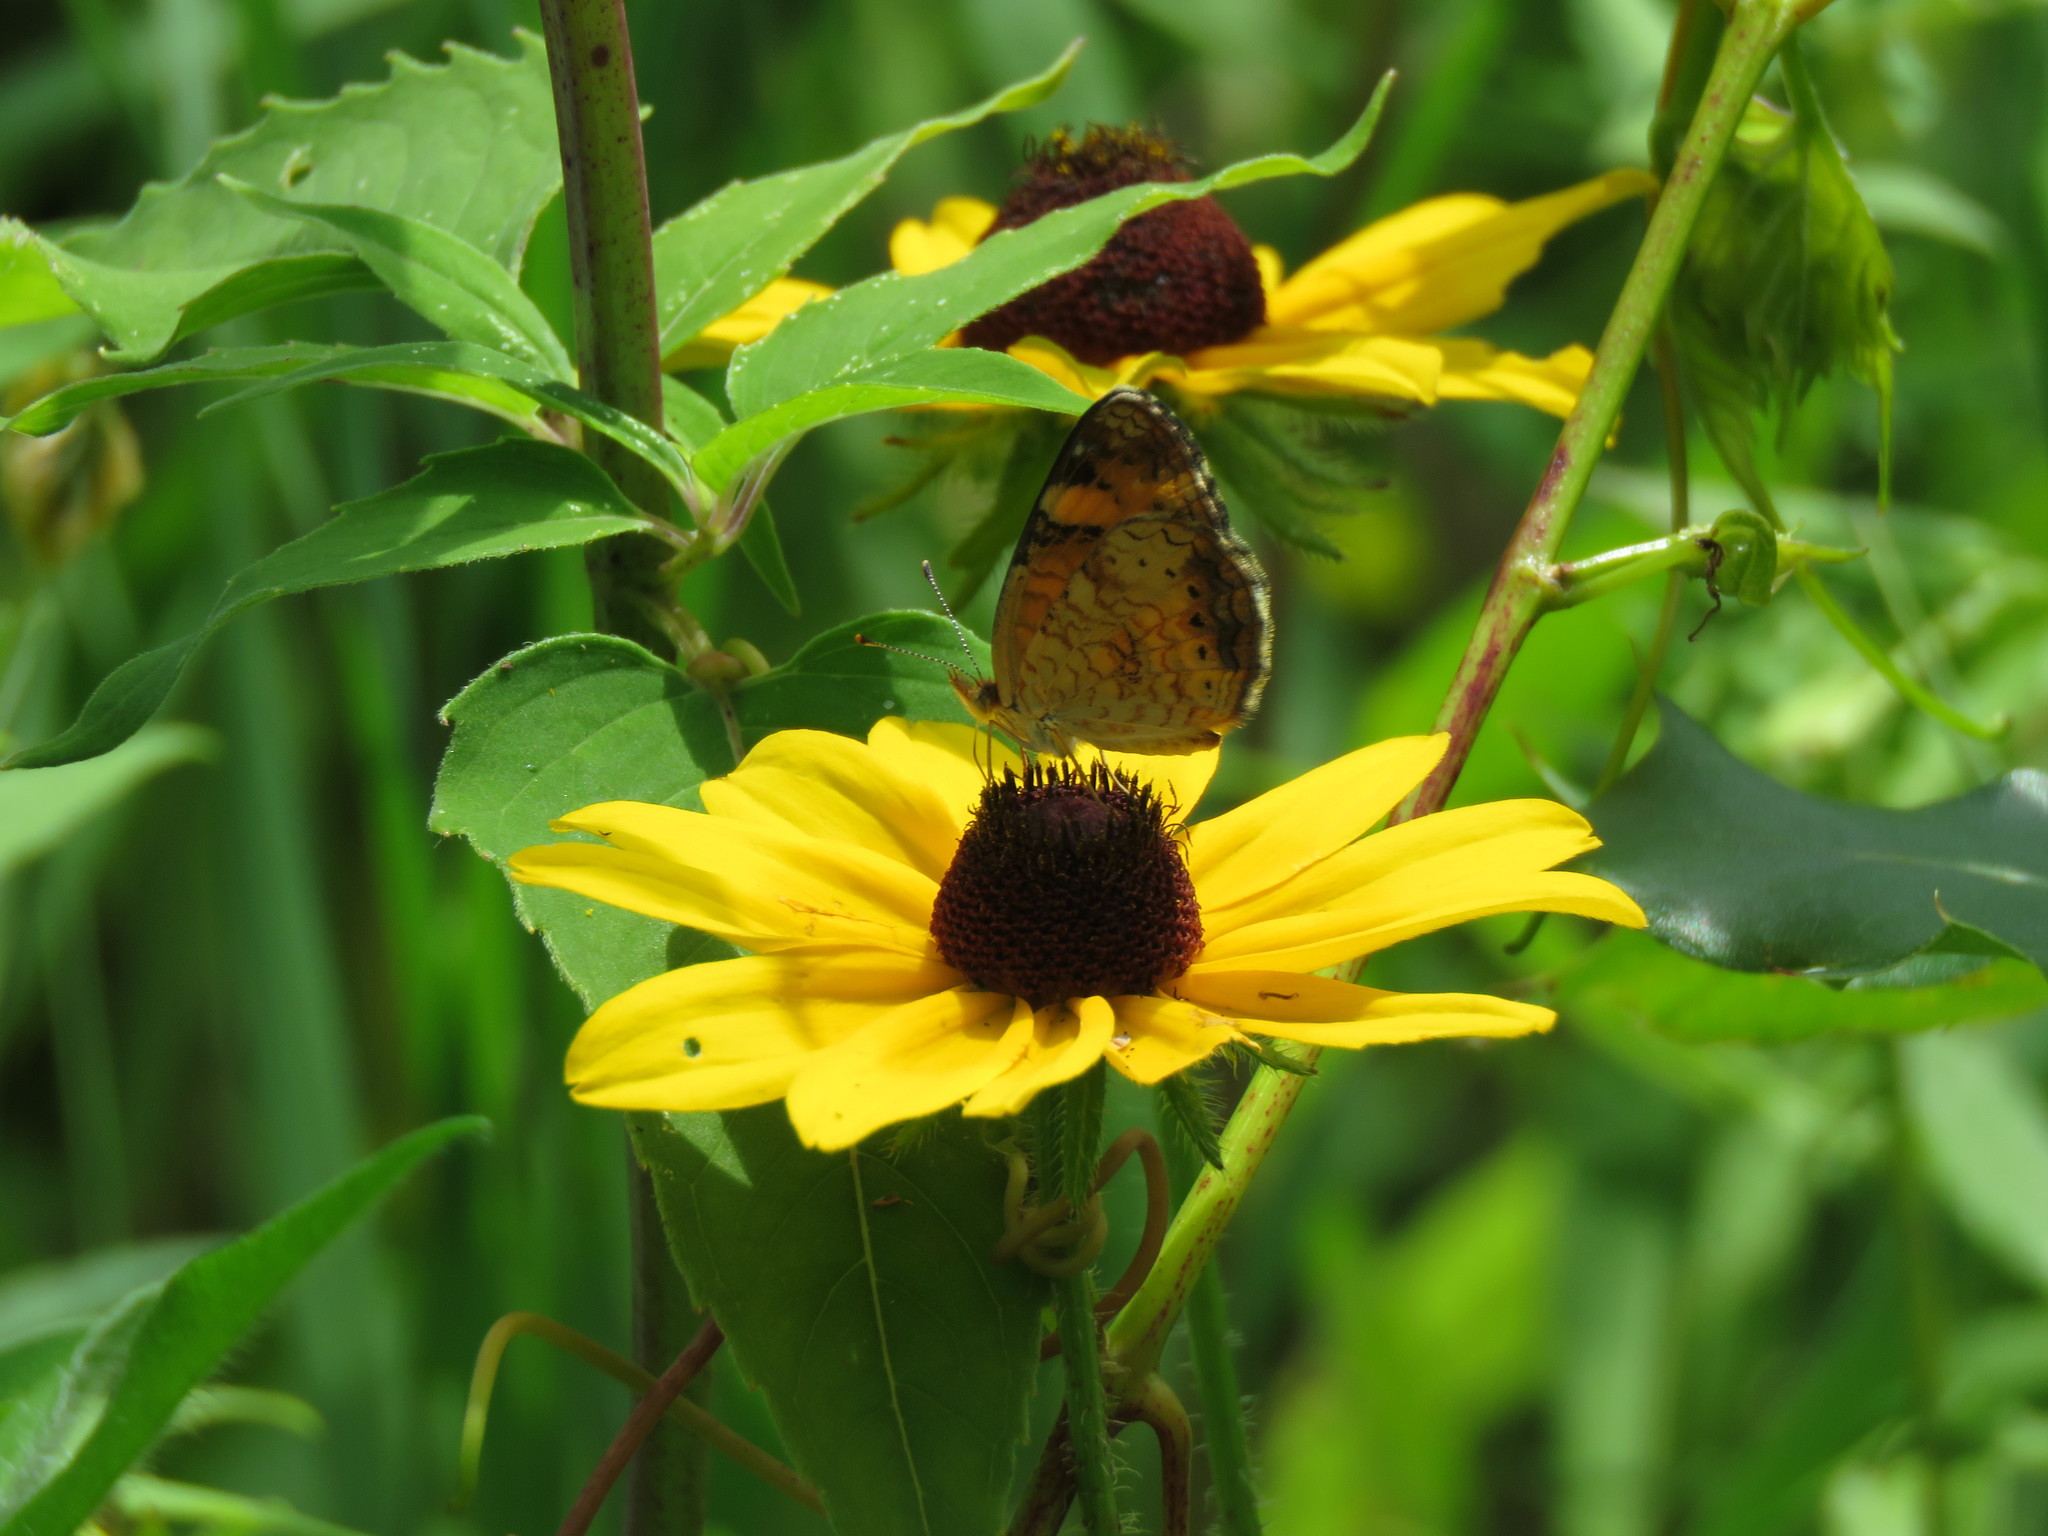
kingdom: Animalia
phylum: Arthropoda
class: Insecta
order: Lepidoptera
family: Nymphalidae
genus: Phyciodes
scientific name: Phyciodes tharos
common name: Pearl crescent
